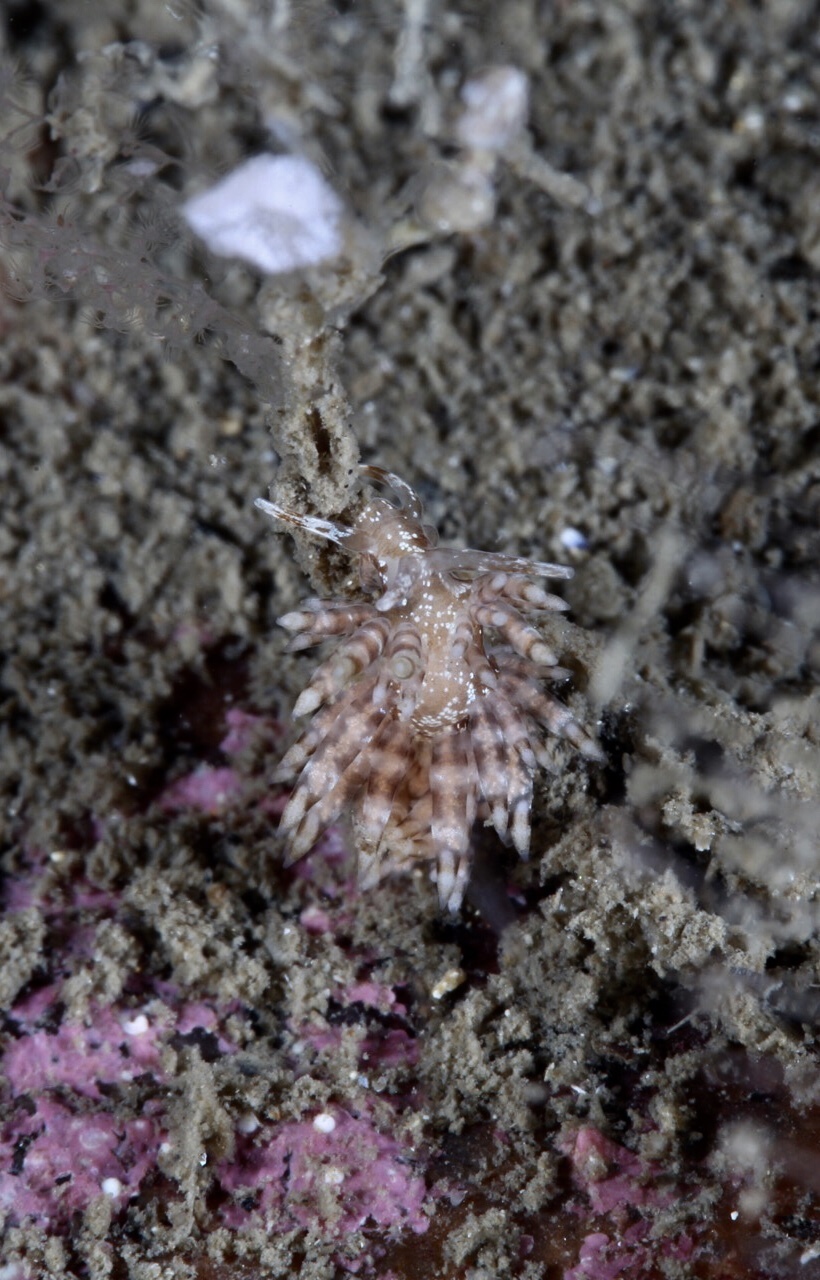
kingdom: Animalia
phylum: Mollusca
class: Gastropoda
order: Nudibranchia
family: Eubranchidae
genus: Eubranchus
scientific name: Eubranchus vittatus
